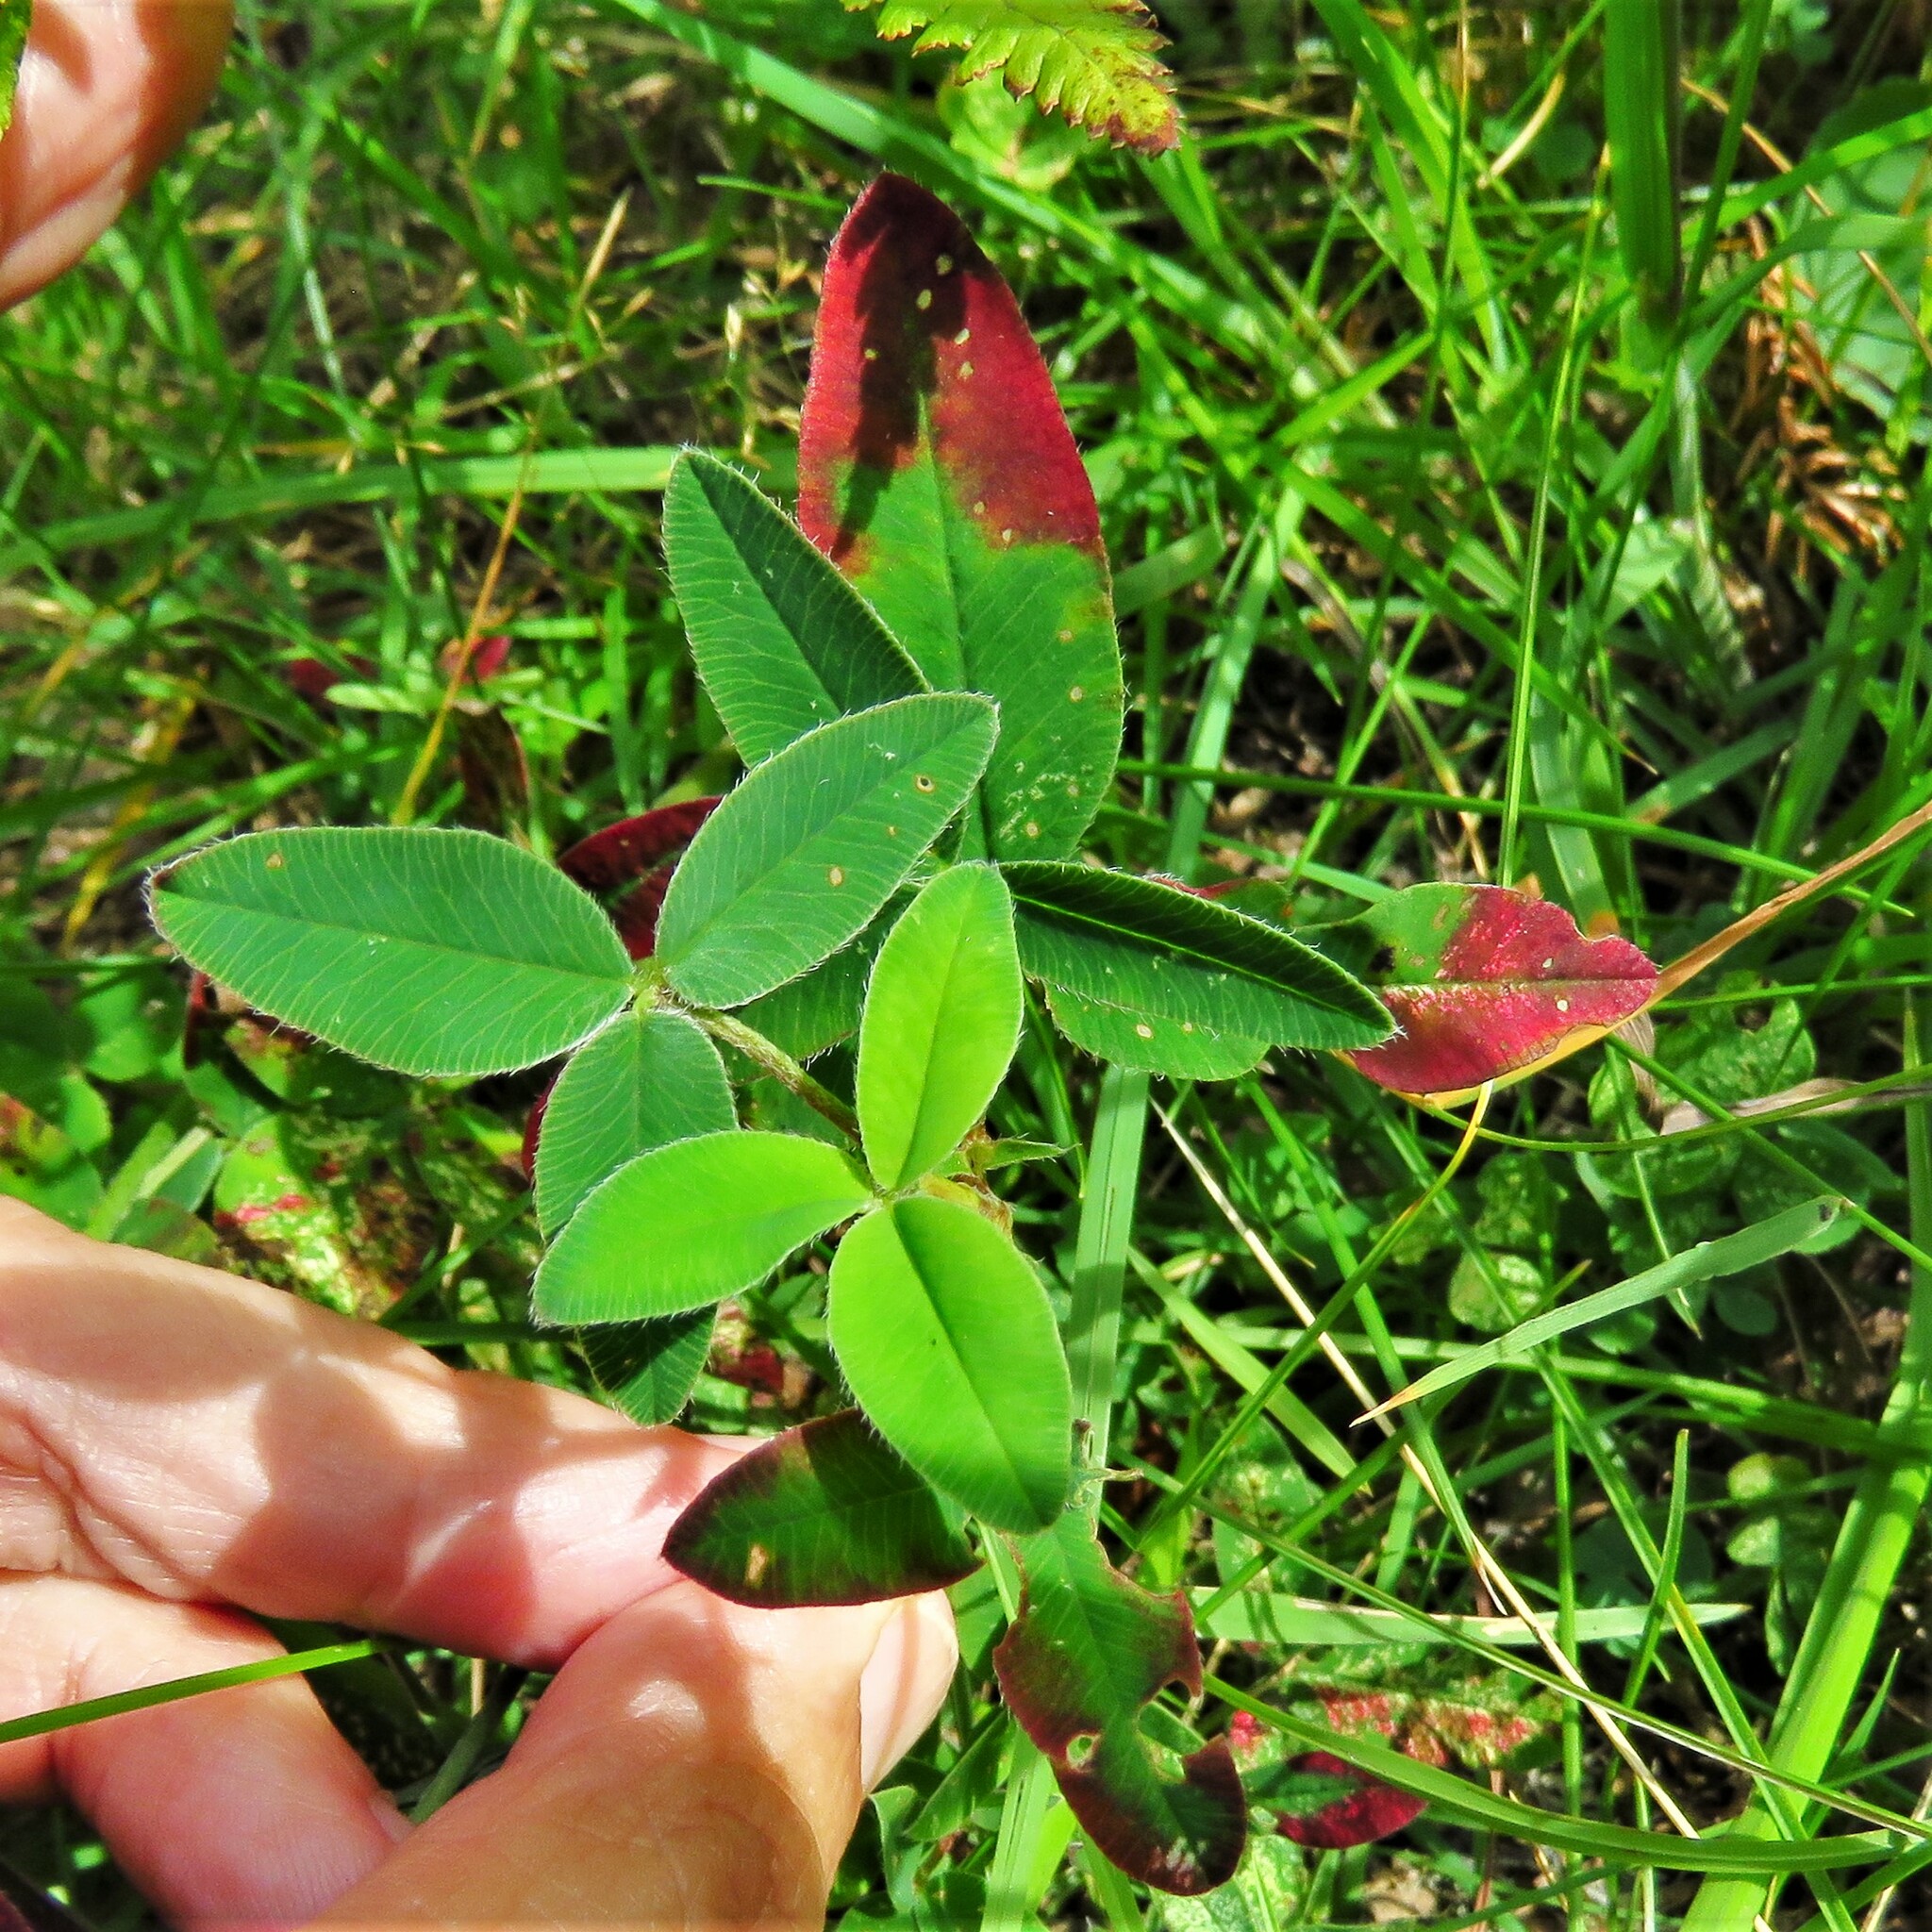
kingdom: Plantae
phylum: Tracheophyta
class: Magnoliopsida
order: Fabales
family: Fabaceae
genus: Trifolium
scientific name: Trifolium medium
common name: Zigzag clover
